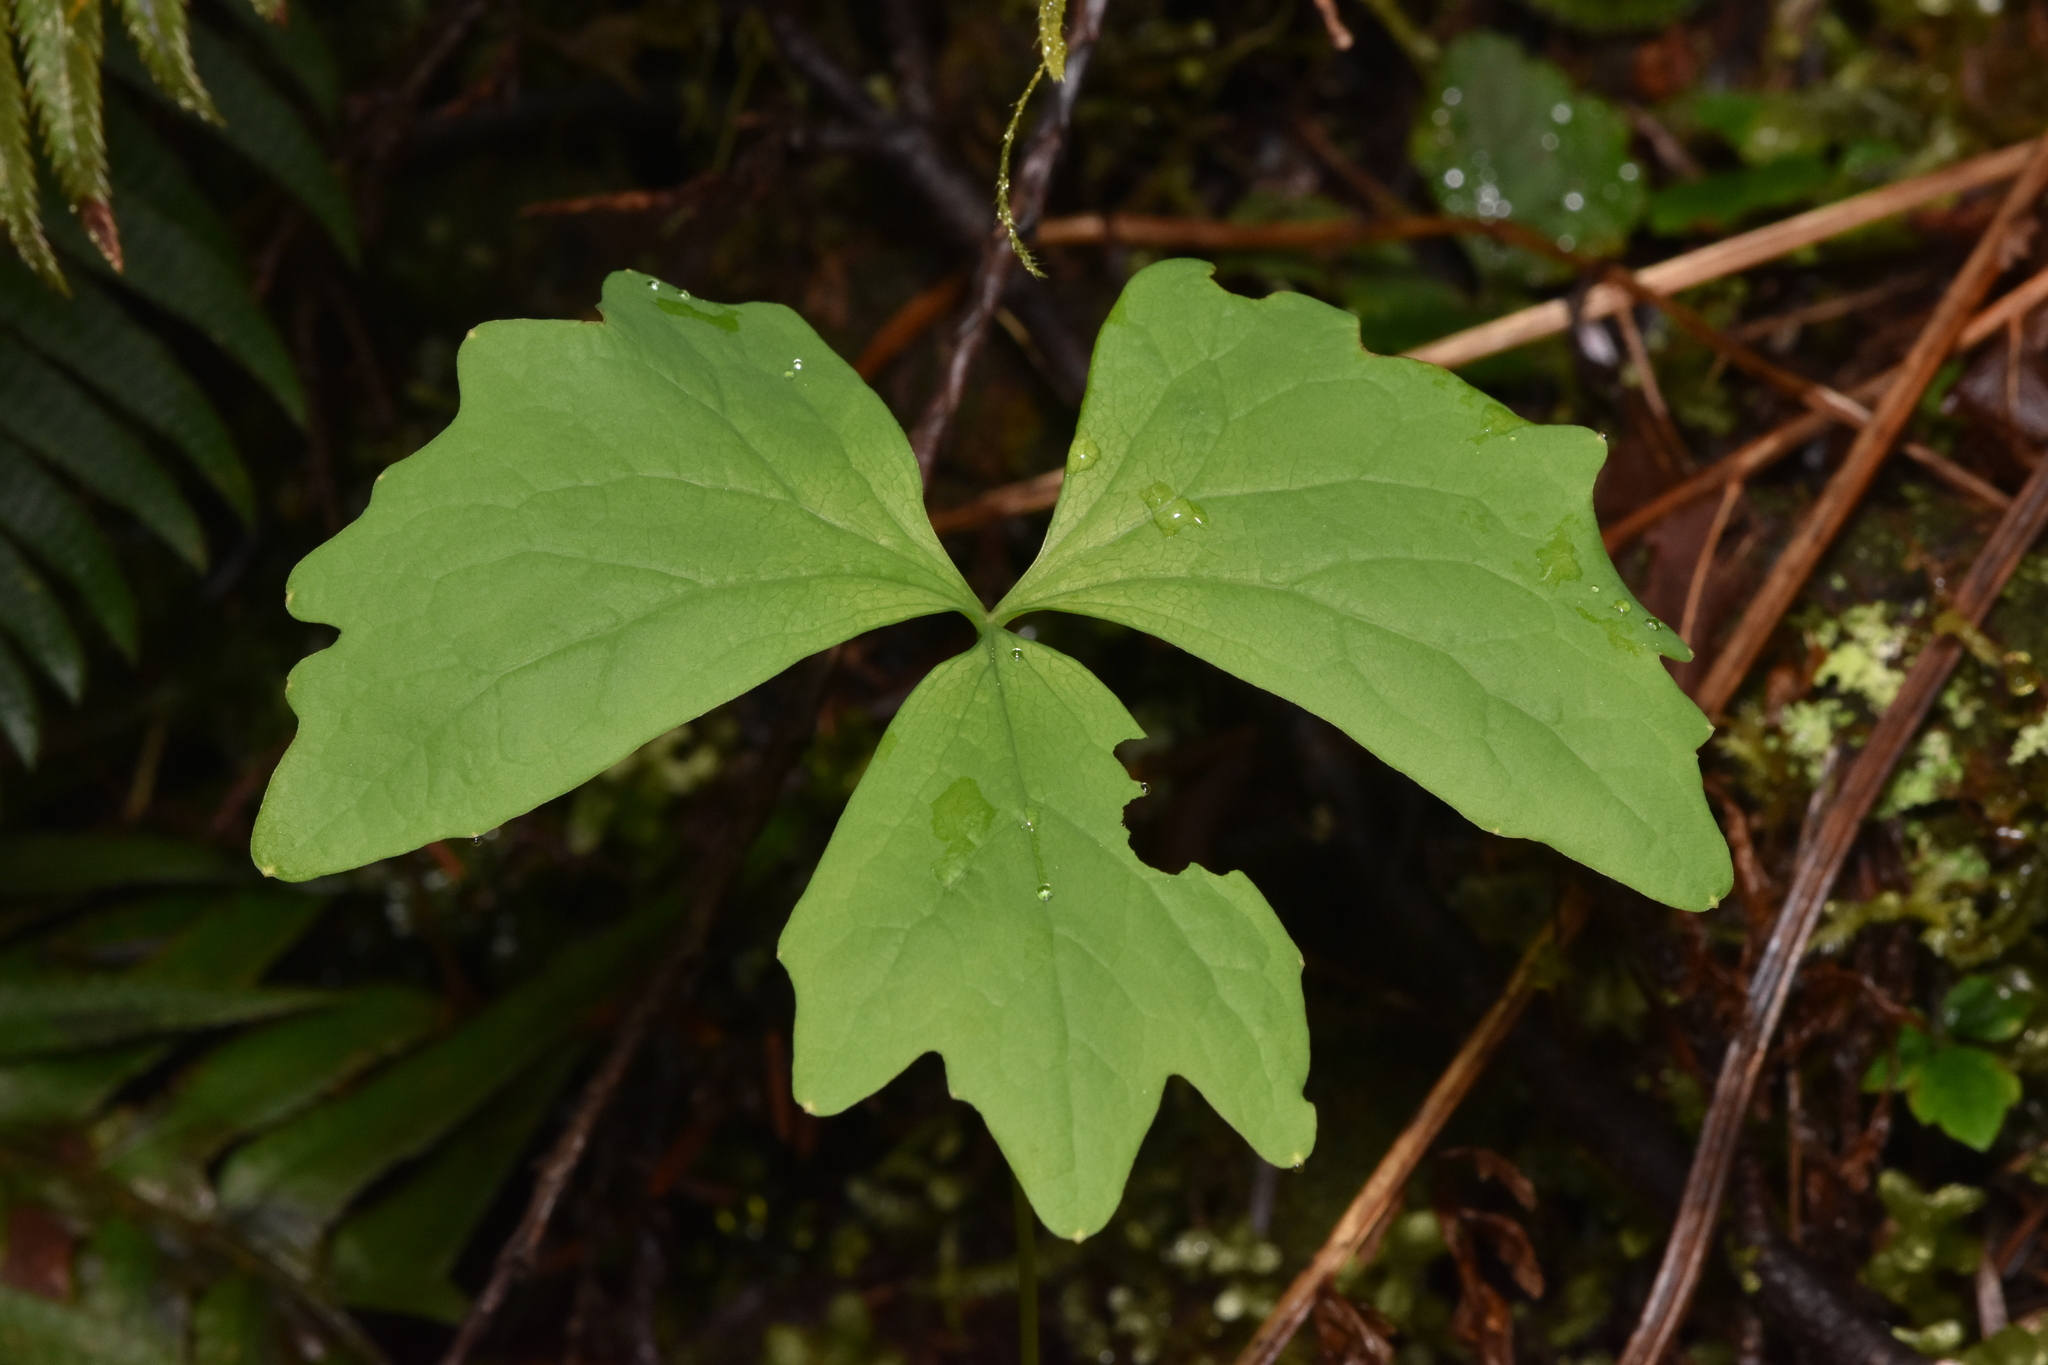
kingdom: Plantae
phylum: Tracheophyta
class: Magnoliopsida
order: Ranunculales
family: Berberidaceae
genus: Achlys
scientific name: Achlys triphylla
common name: Vanilla-leaf
